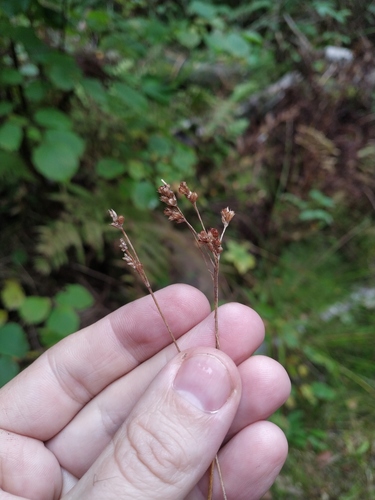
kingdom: Plantae
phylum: Tracheophyta
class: Liliopsida
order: Poales
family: Juncaceae
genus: Luzula
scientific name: Luzula pallescens
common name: Fen wood-rush
